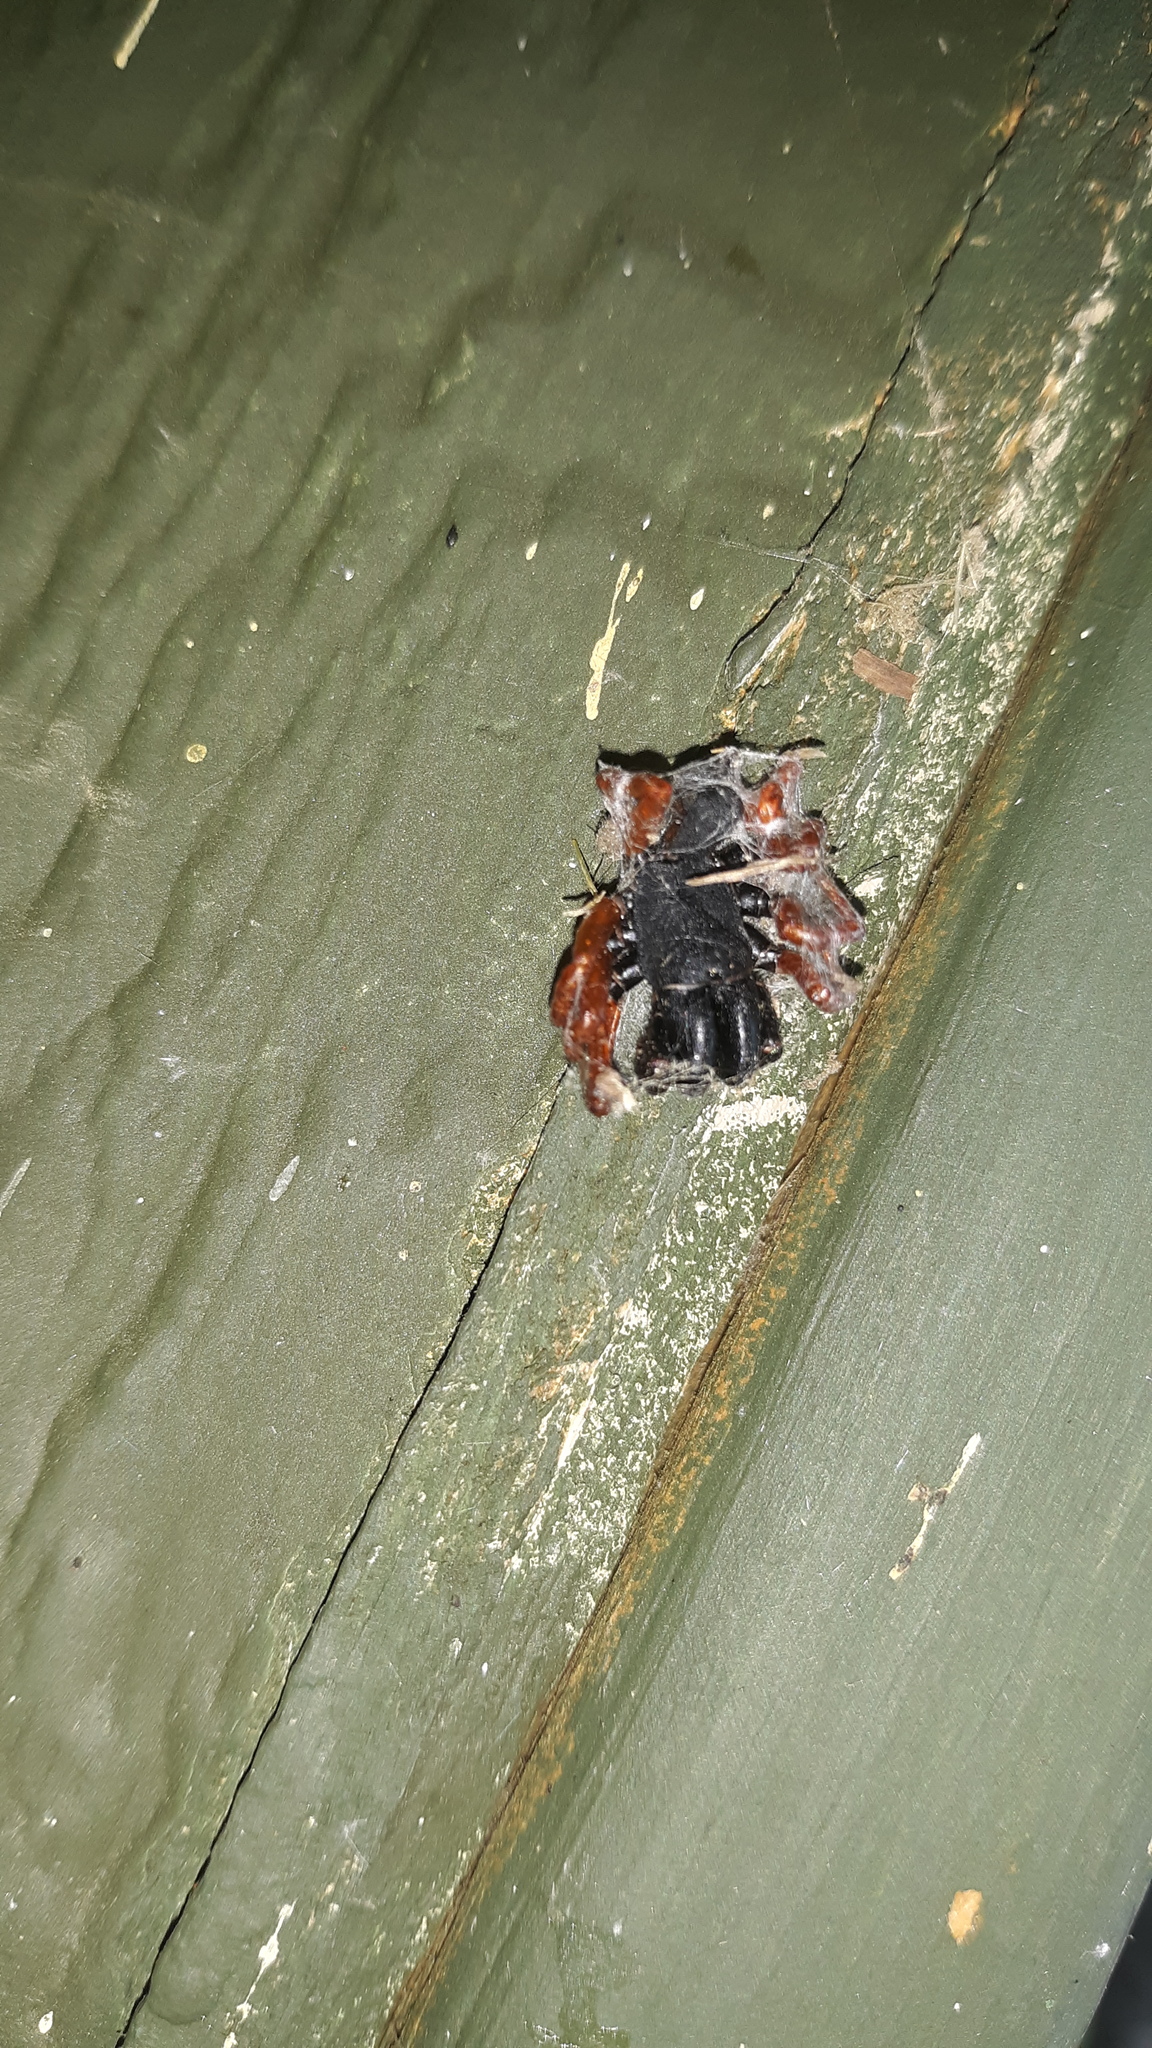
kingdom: Animalia
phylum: Arthropoda
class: Arachnida
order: Araneae
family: Atypidae
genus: Sphodros
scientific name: Sphodros rufipes
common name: Red-legged purseweb spider
